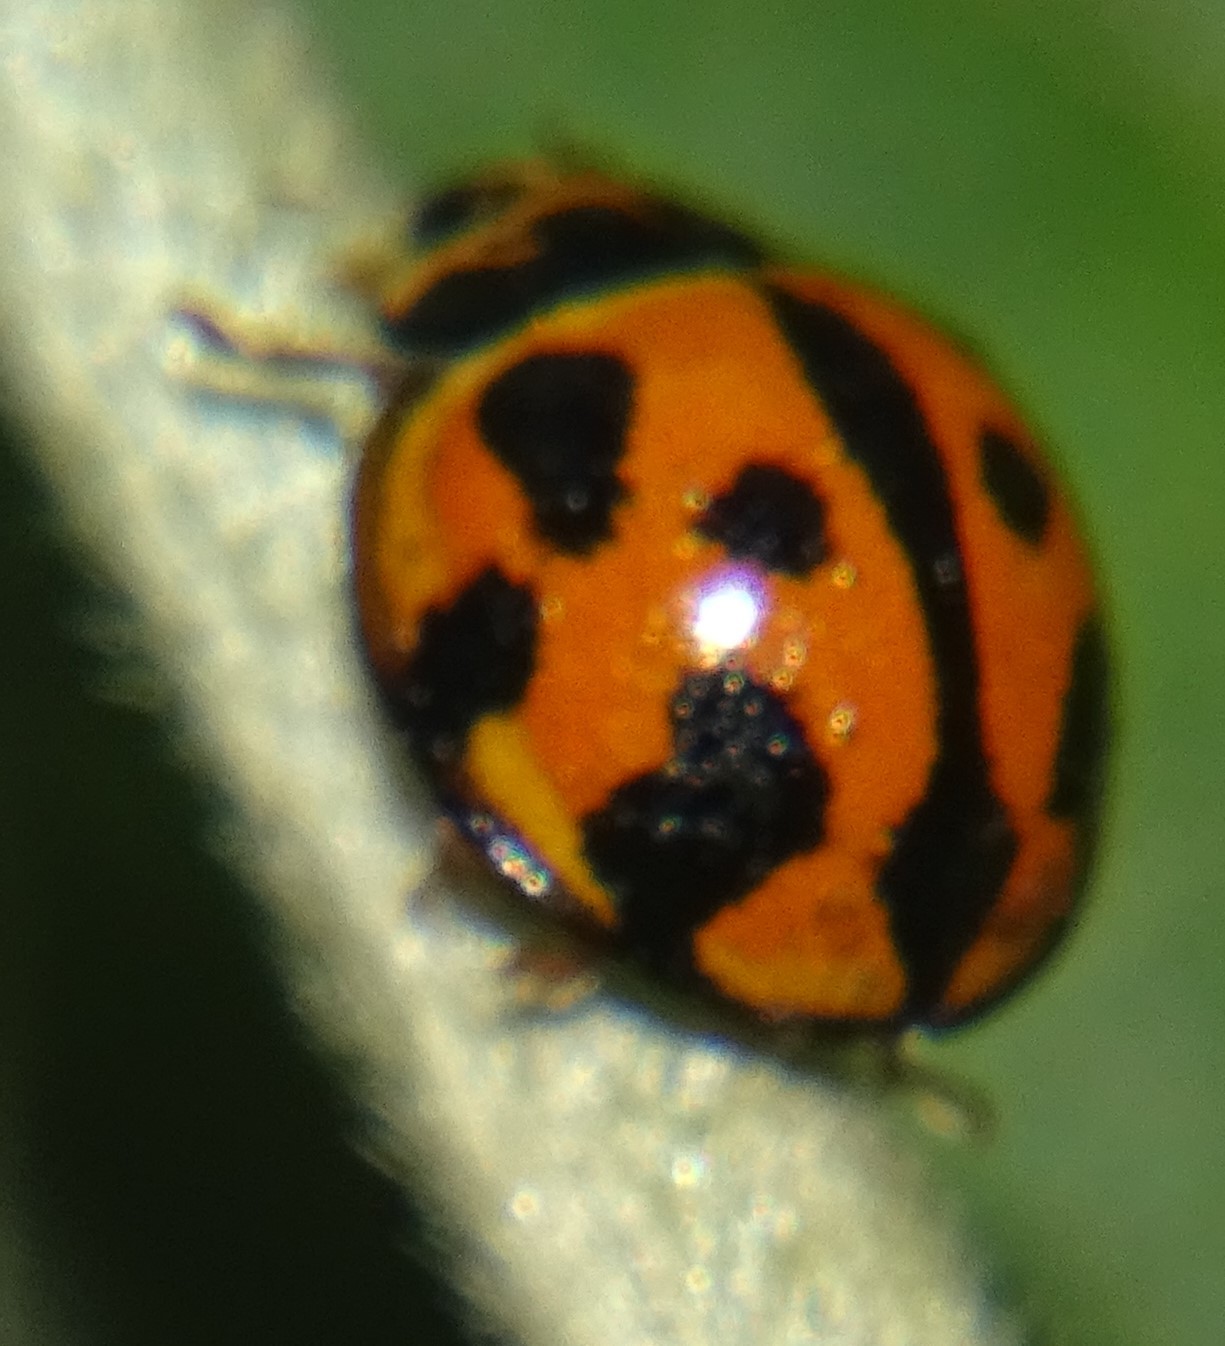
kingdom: Animalia
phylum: Arthropoda
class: Insecta
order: Coleoptera
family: Coccinellidae
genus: Coelophora
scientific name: Coelophora inaequalis
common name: Common australian lady beetle
